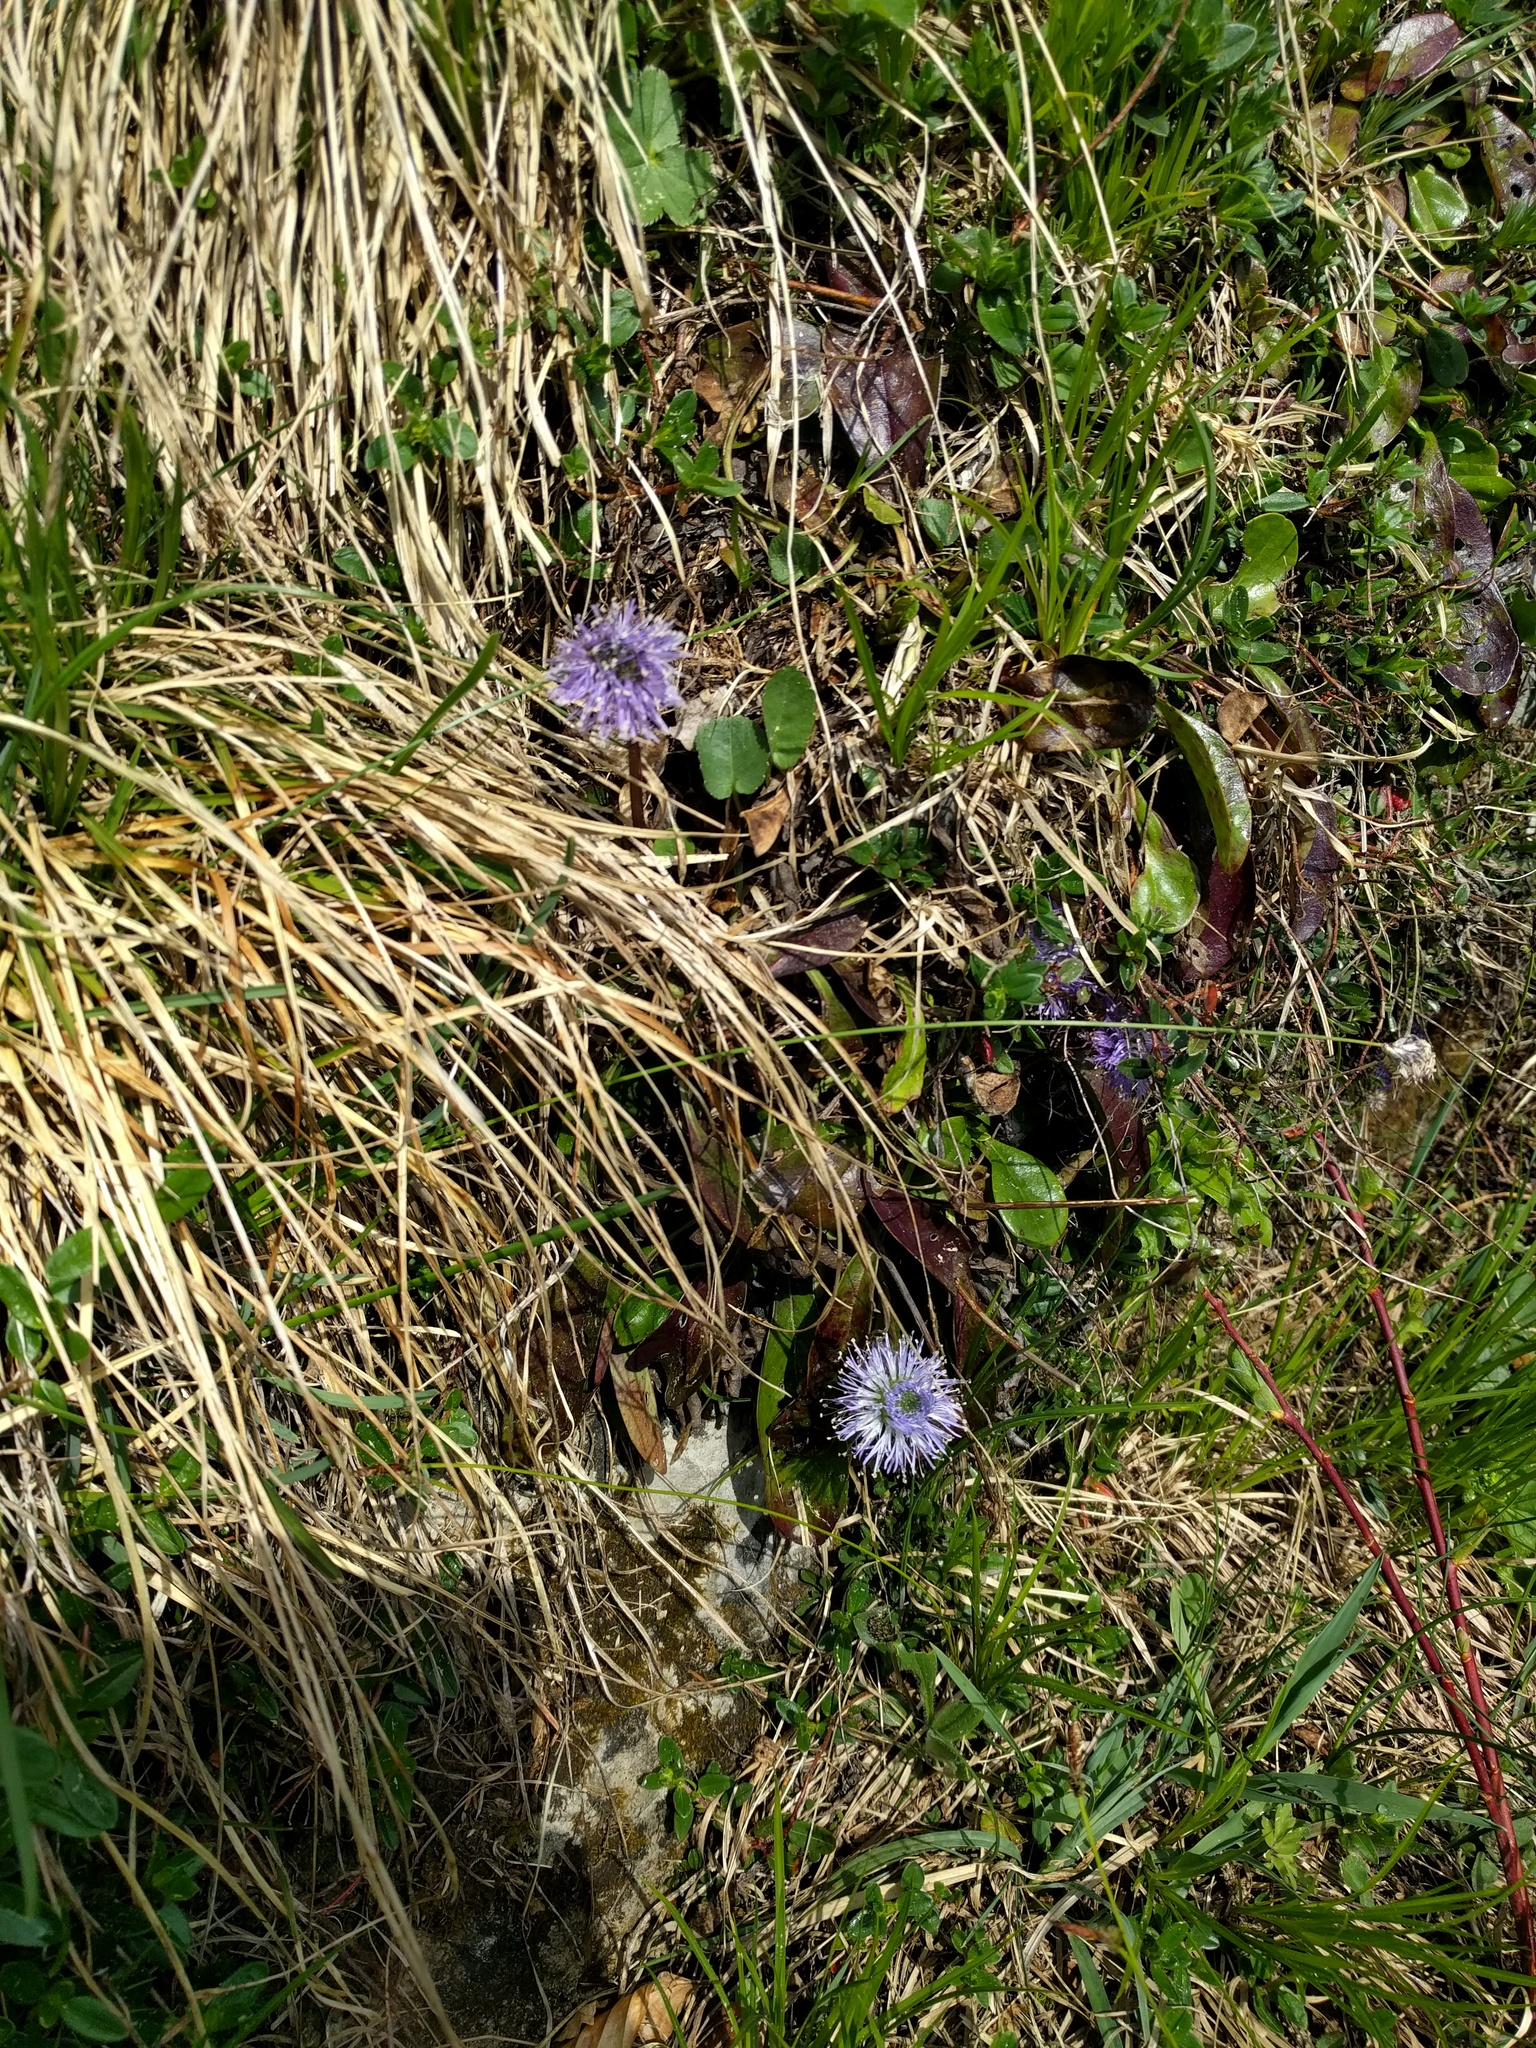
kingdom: Plantae
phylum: Tracheophyta
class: Magnoliopsida
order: Lamiales
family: Plantaginaceae
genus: Globularia
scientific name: Globularia nudicaulis
